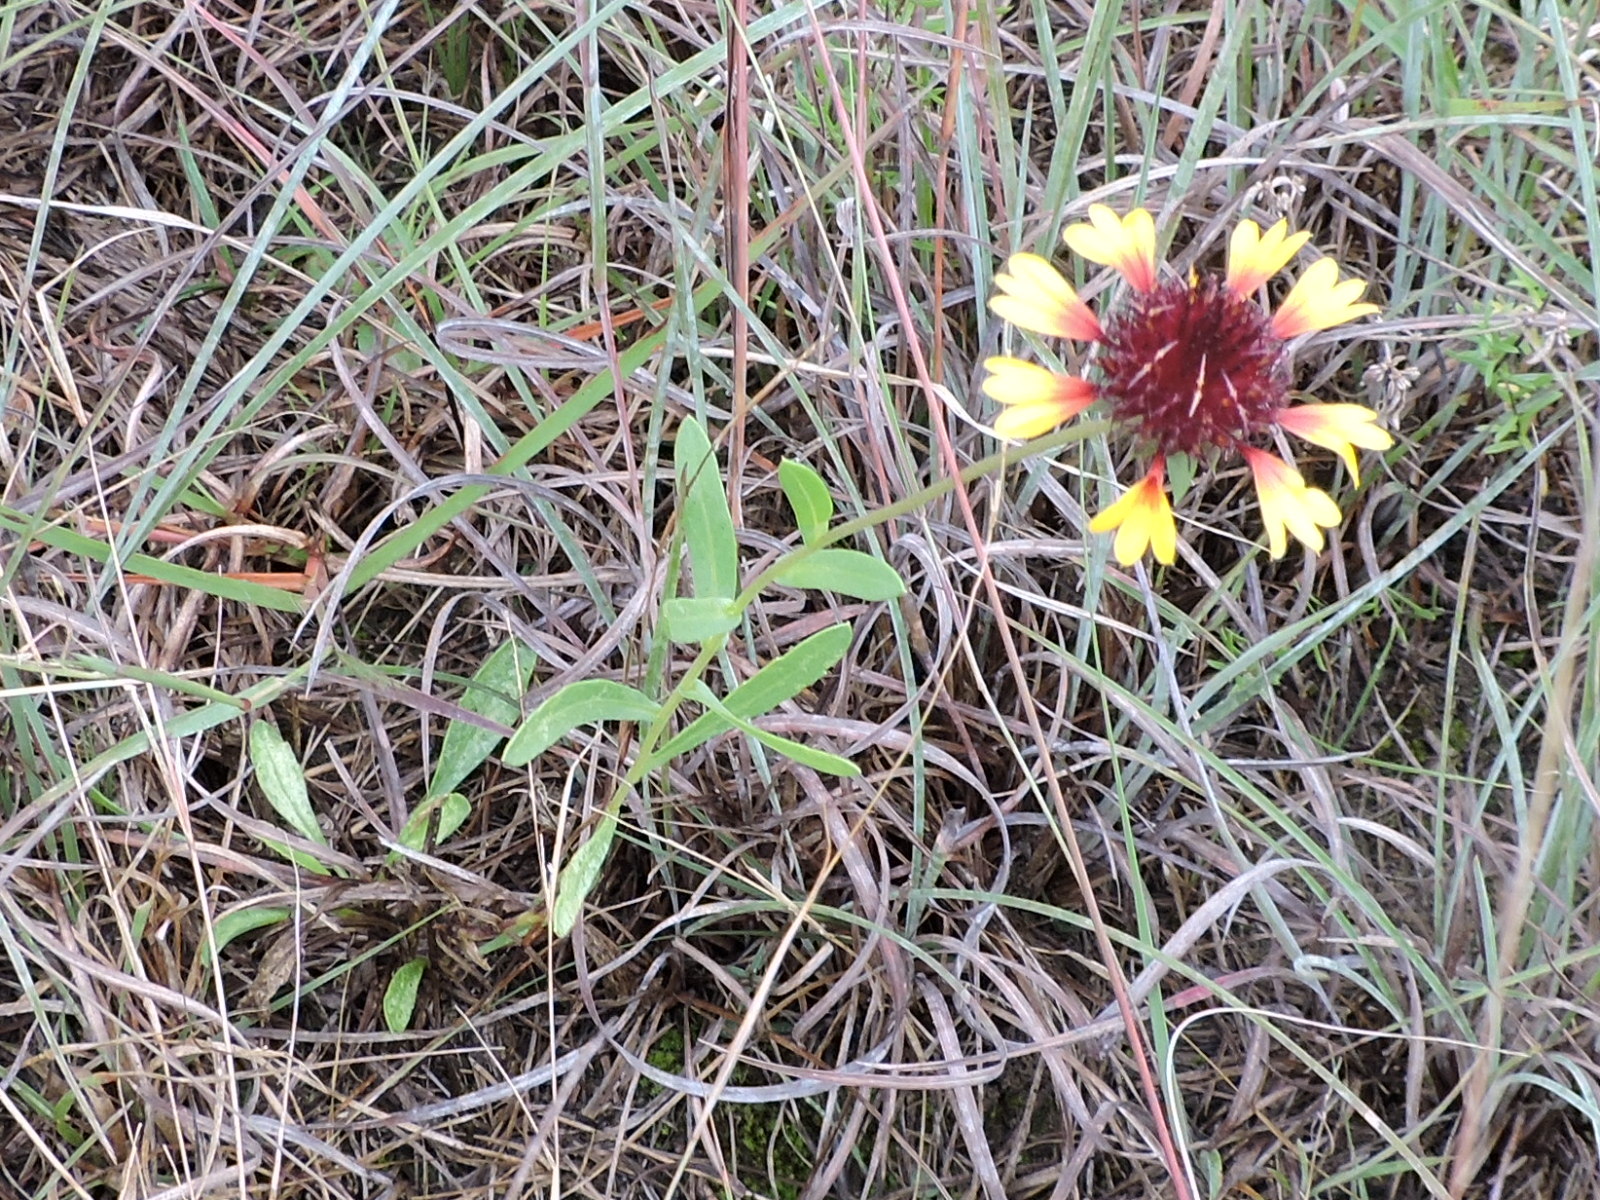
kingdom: Plantae
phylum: Tracheophyta
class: Magnoliopsida
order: Asterales
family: Asteraceae
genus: Gaillardia
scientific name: Gaillardia aestivalis
